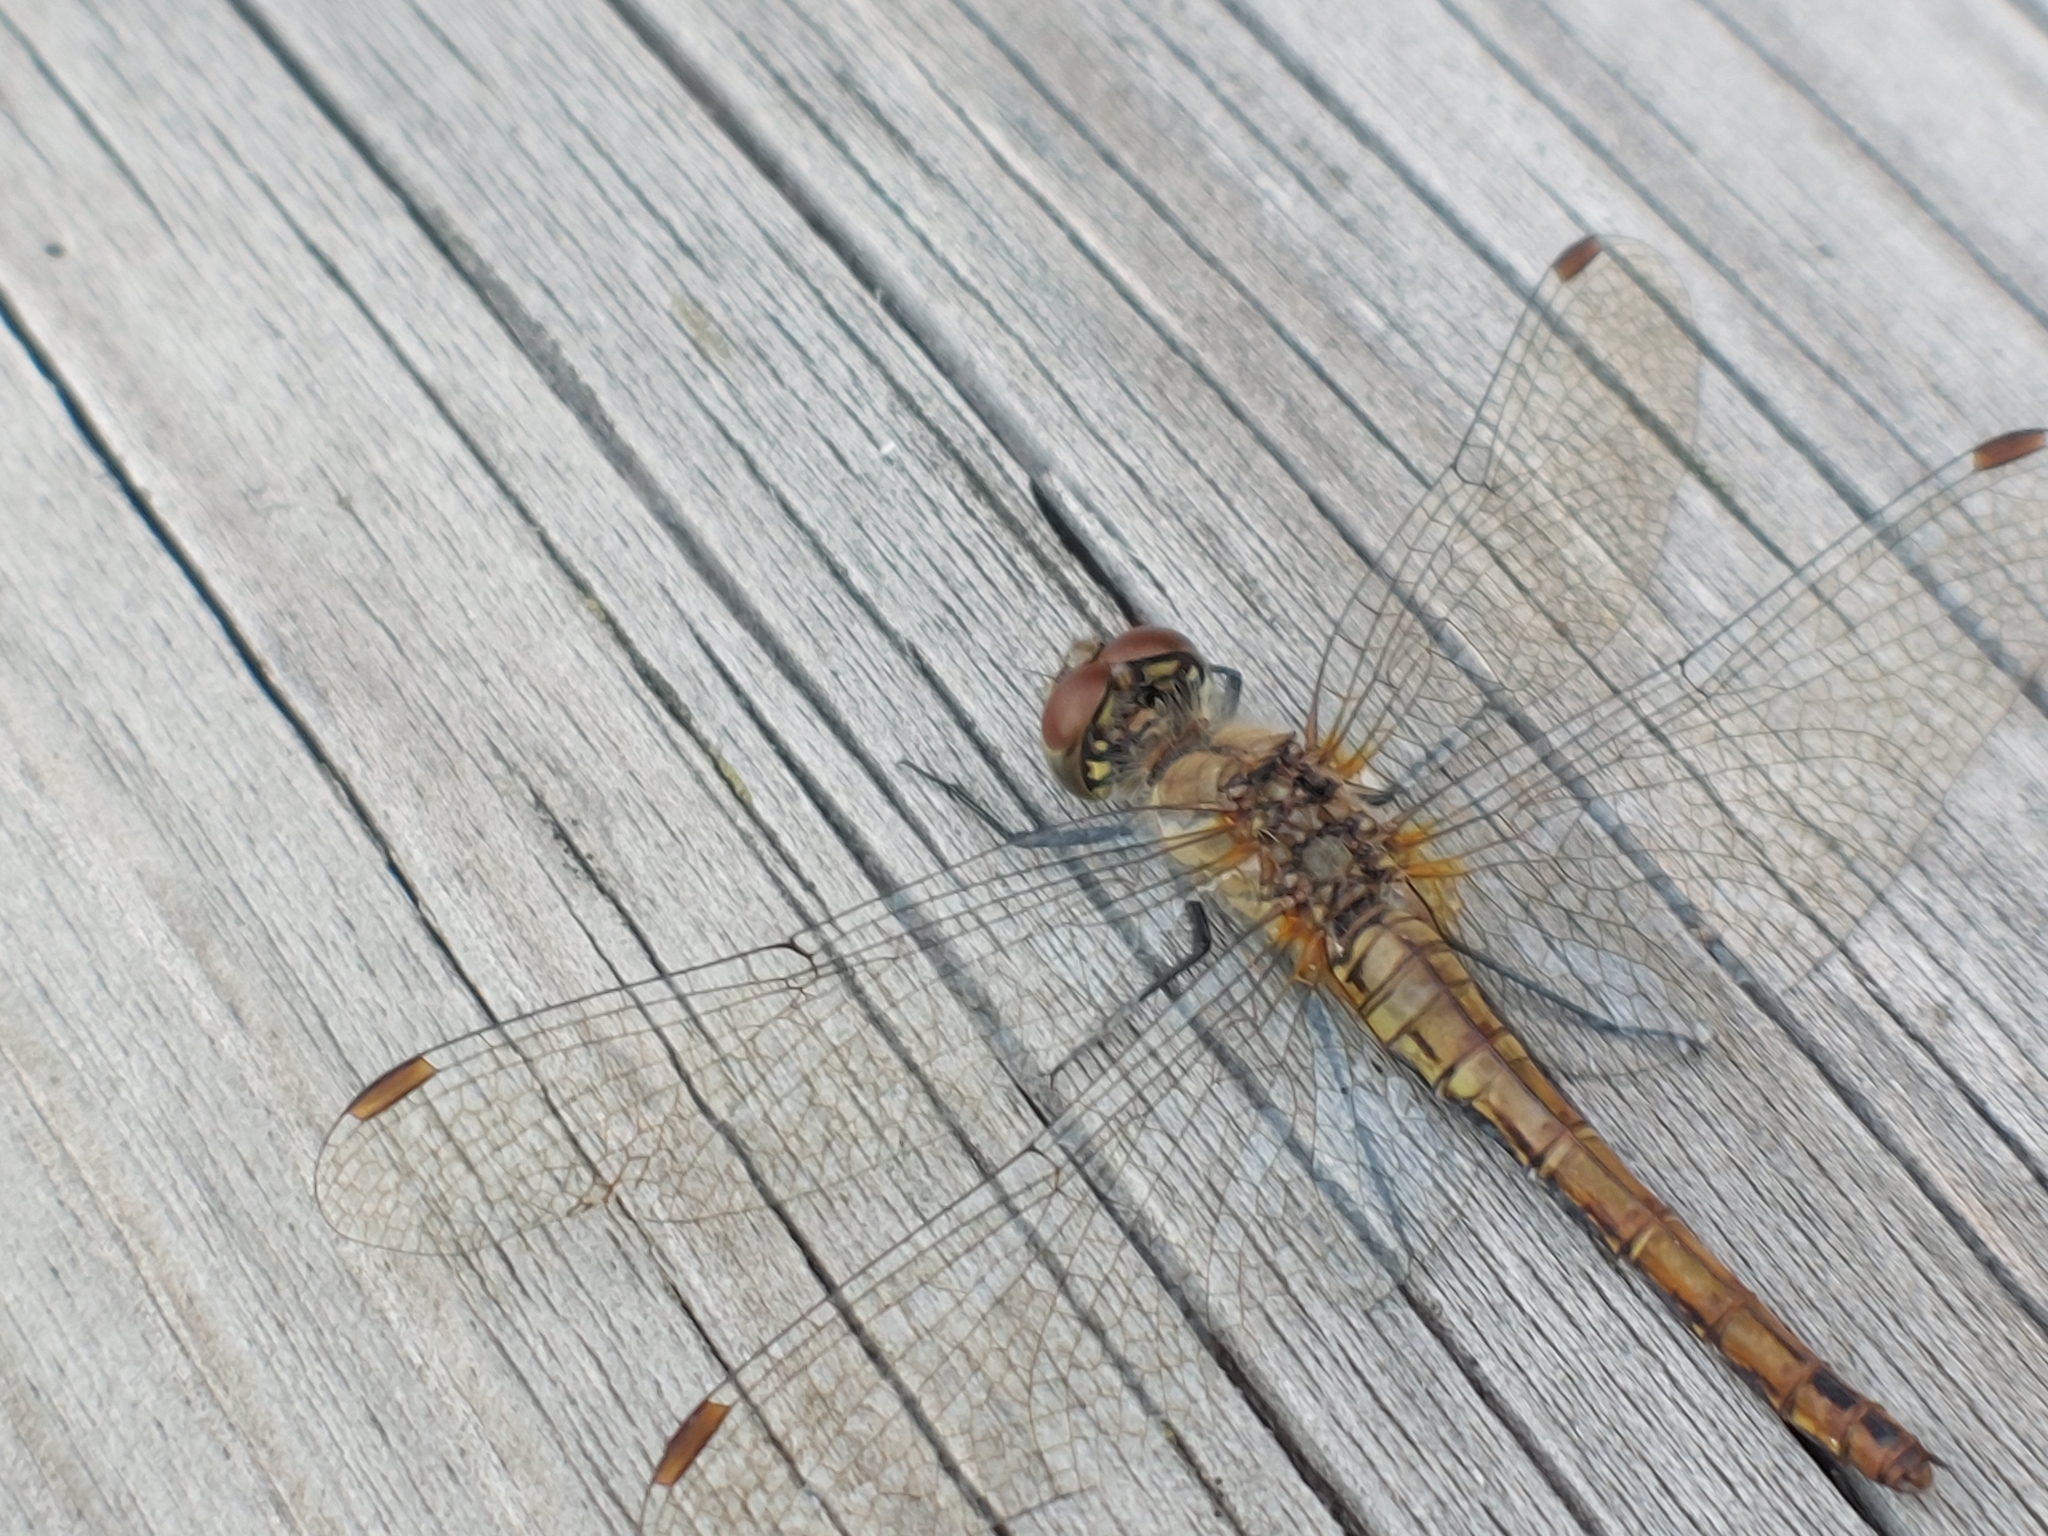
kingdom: Animalia
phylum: Arthropoda
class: Insecta
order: Odonata
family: Libellulidae
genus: Sympetrum
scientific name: Sympetrum sanguineum
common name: Ruddy darter
